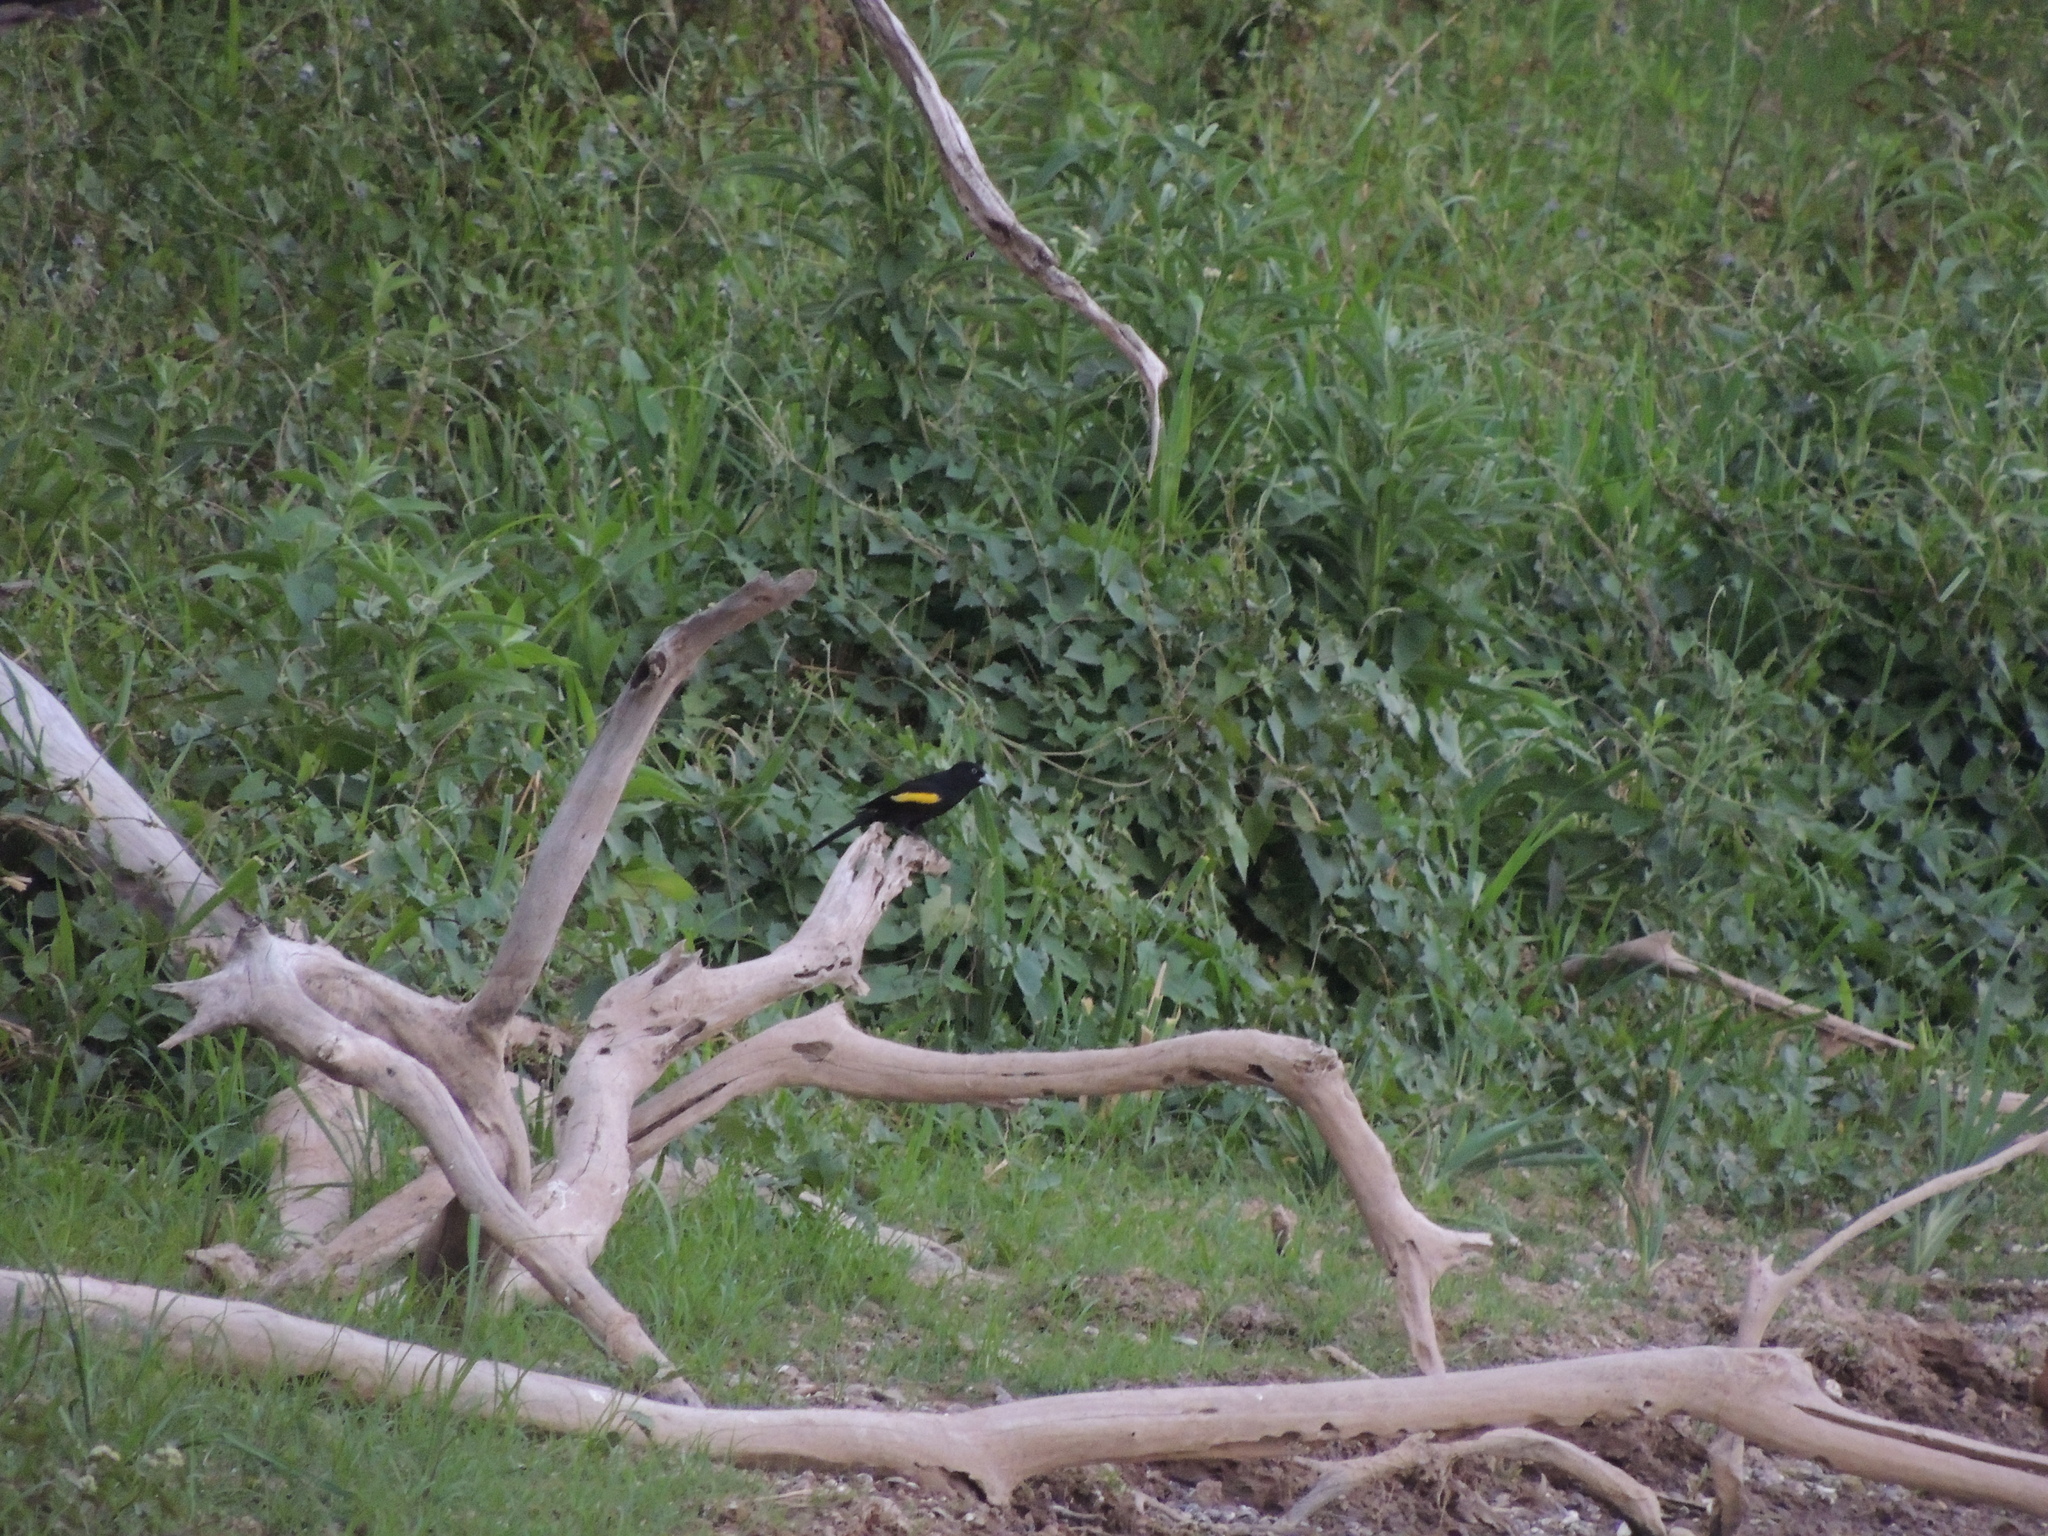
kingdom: Animalia
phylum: Chordata
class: Aves
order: Passeriformes
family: Icteridae
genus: Cacicus
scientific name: Cacicus chrysopterus
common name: Golden-winged cacique
